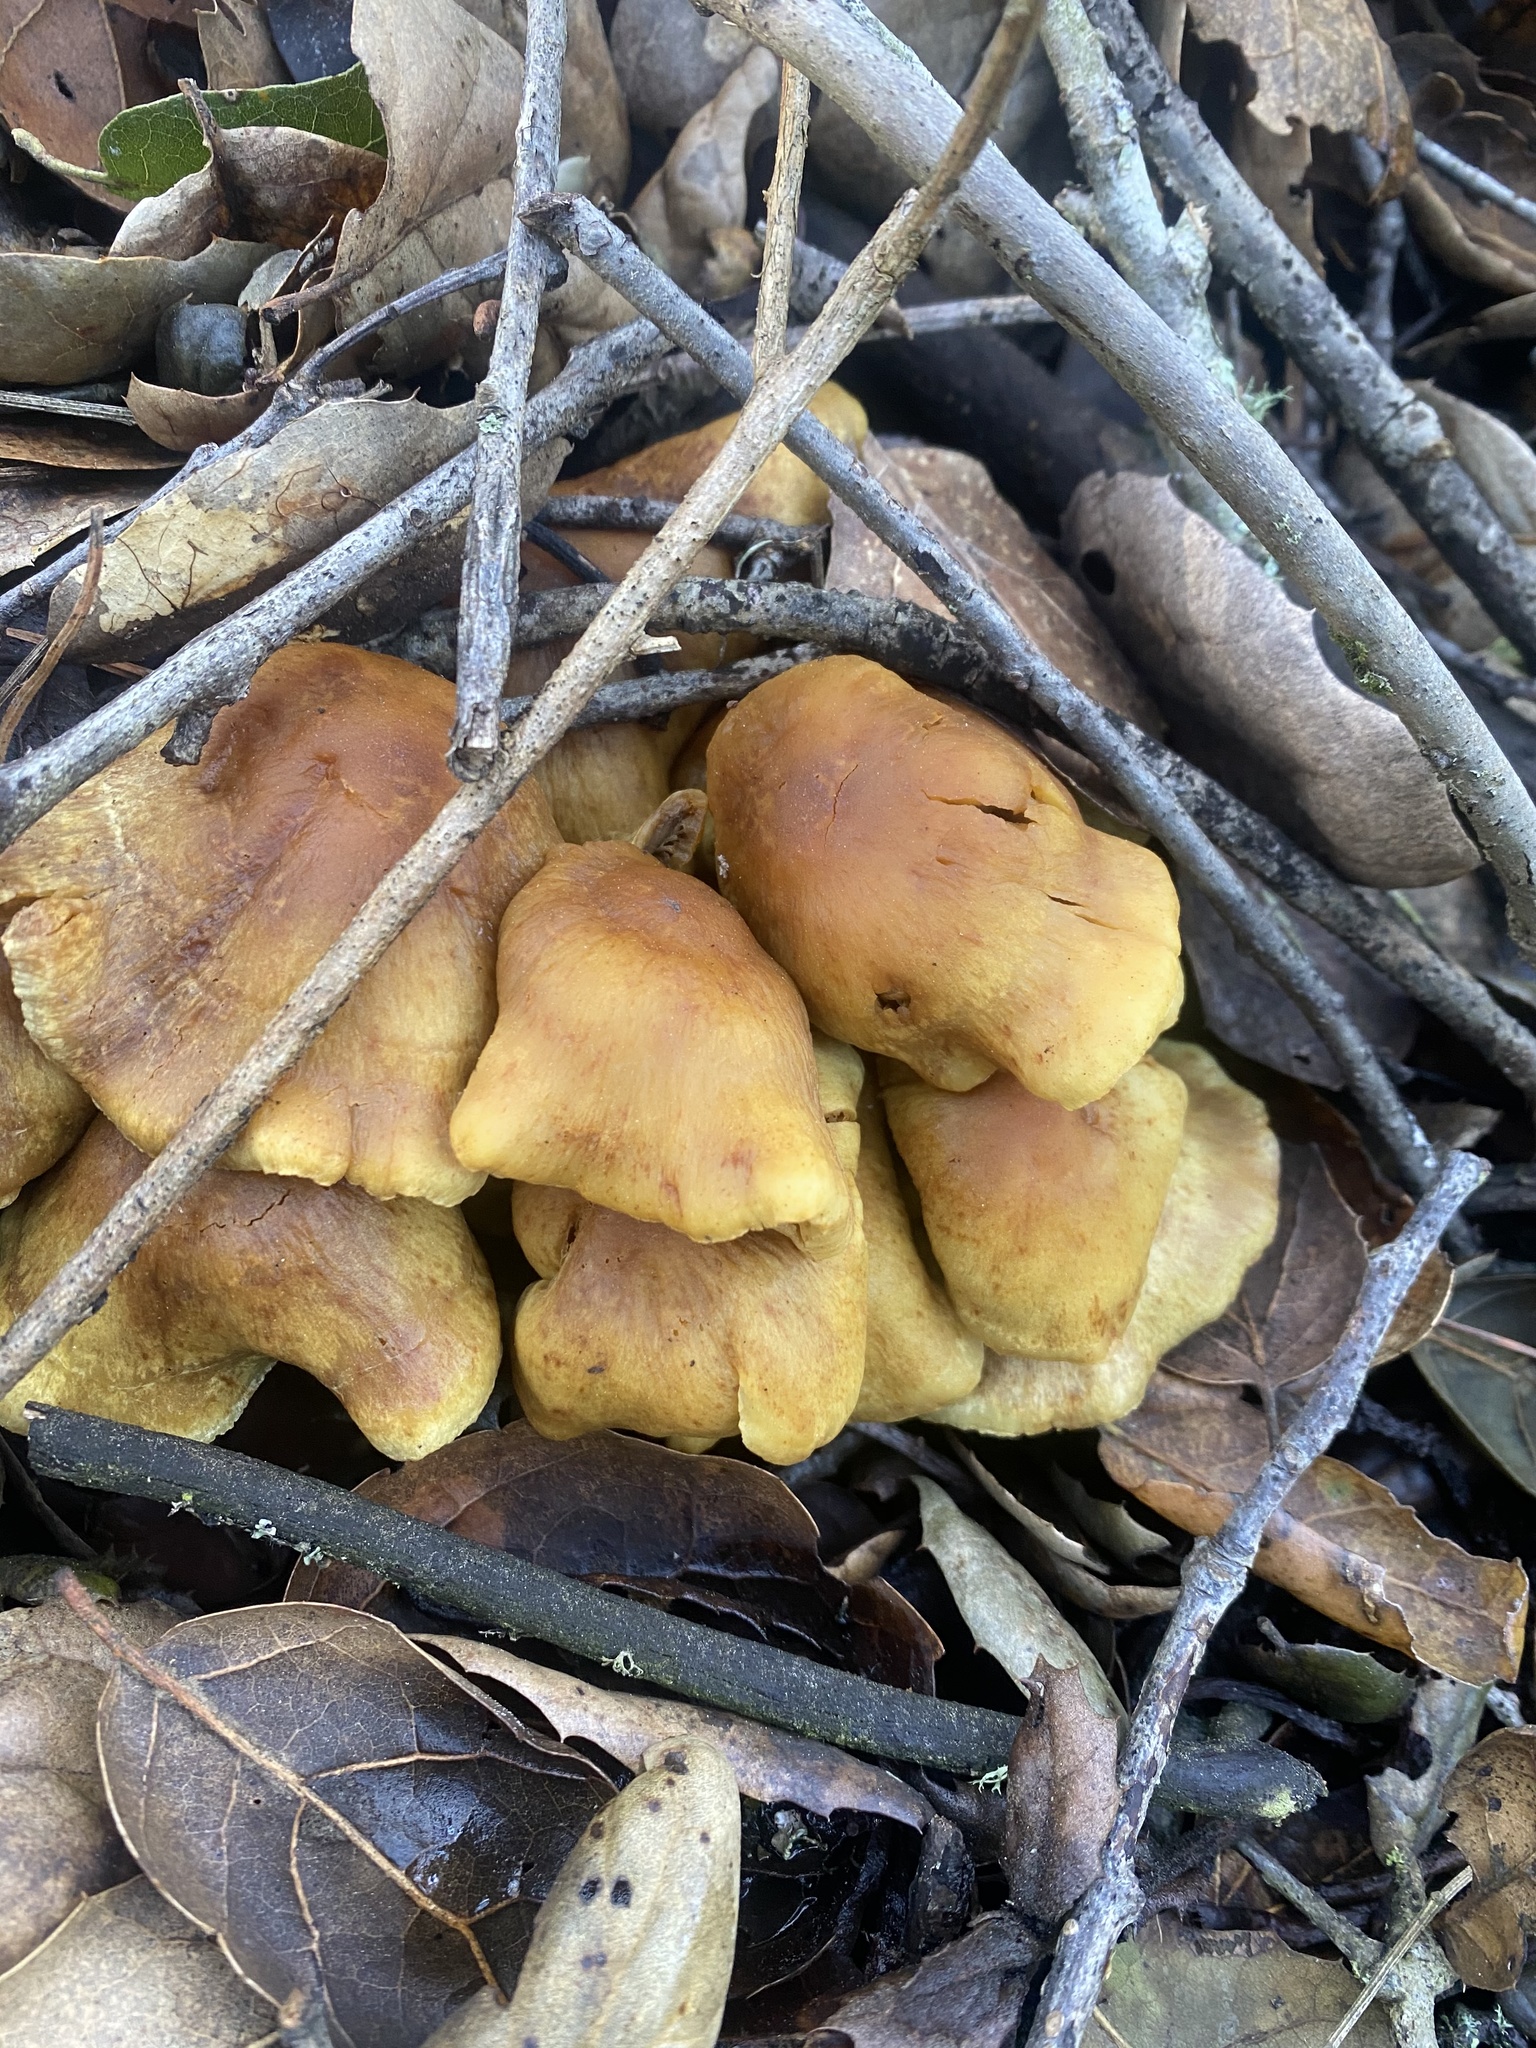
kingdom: Fungi
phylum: Basidiomycota
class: Agaricomycetes
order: Agaricales
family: Strophariaceae
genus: Hypholoma
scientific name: Hypholoma fasciculare
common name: Sulphur tuft
